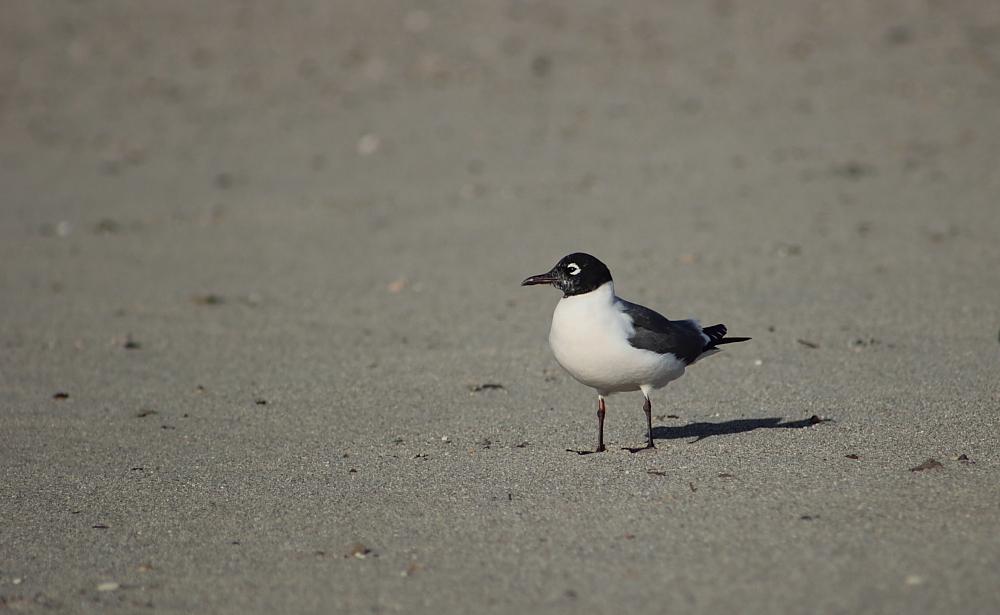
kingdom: Animalia
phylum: Chordata
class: Aves
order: Charadriiformes
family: Laridae
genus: Leucophaeus
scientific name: Leucophaeus pipixcan
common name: Franklin's gull
